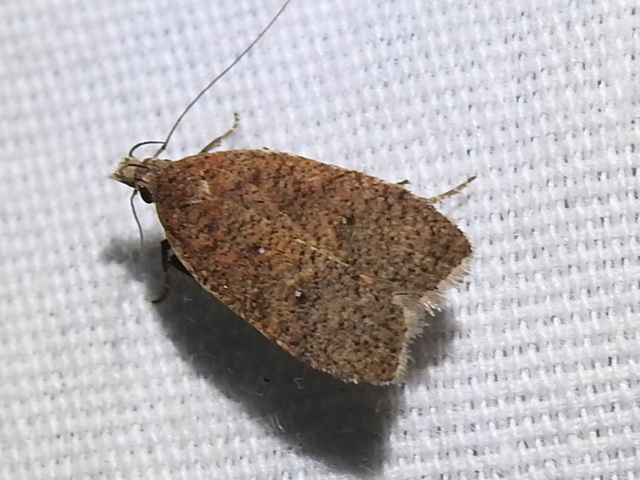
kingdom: Animalia
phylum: Arthropoda
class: Insecta
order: Lepidoptera
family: Gelechiidae
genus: Dichomeris
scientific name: Dichomeris ventrellus
